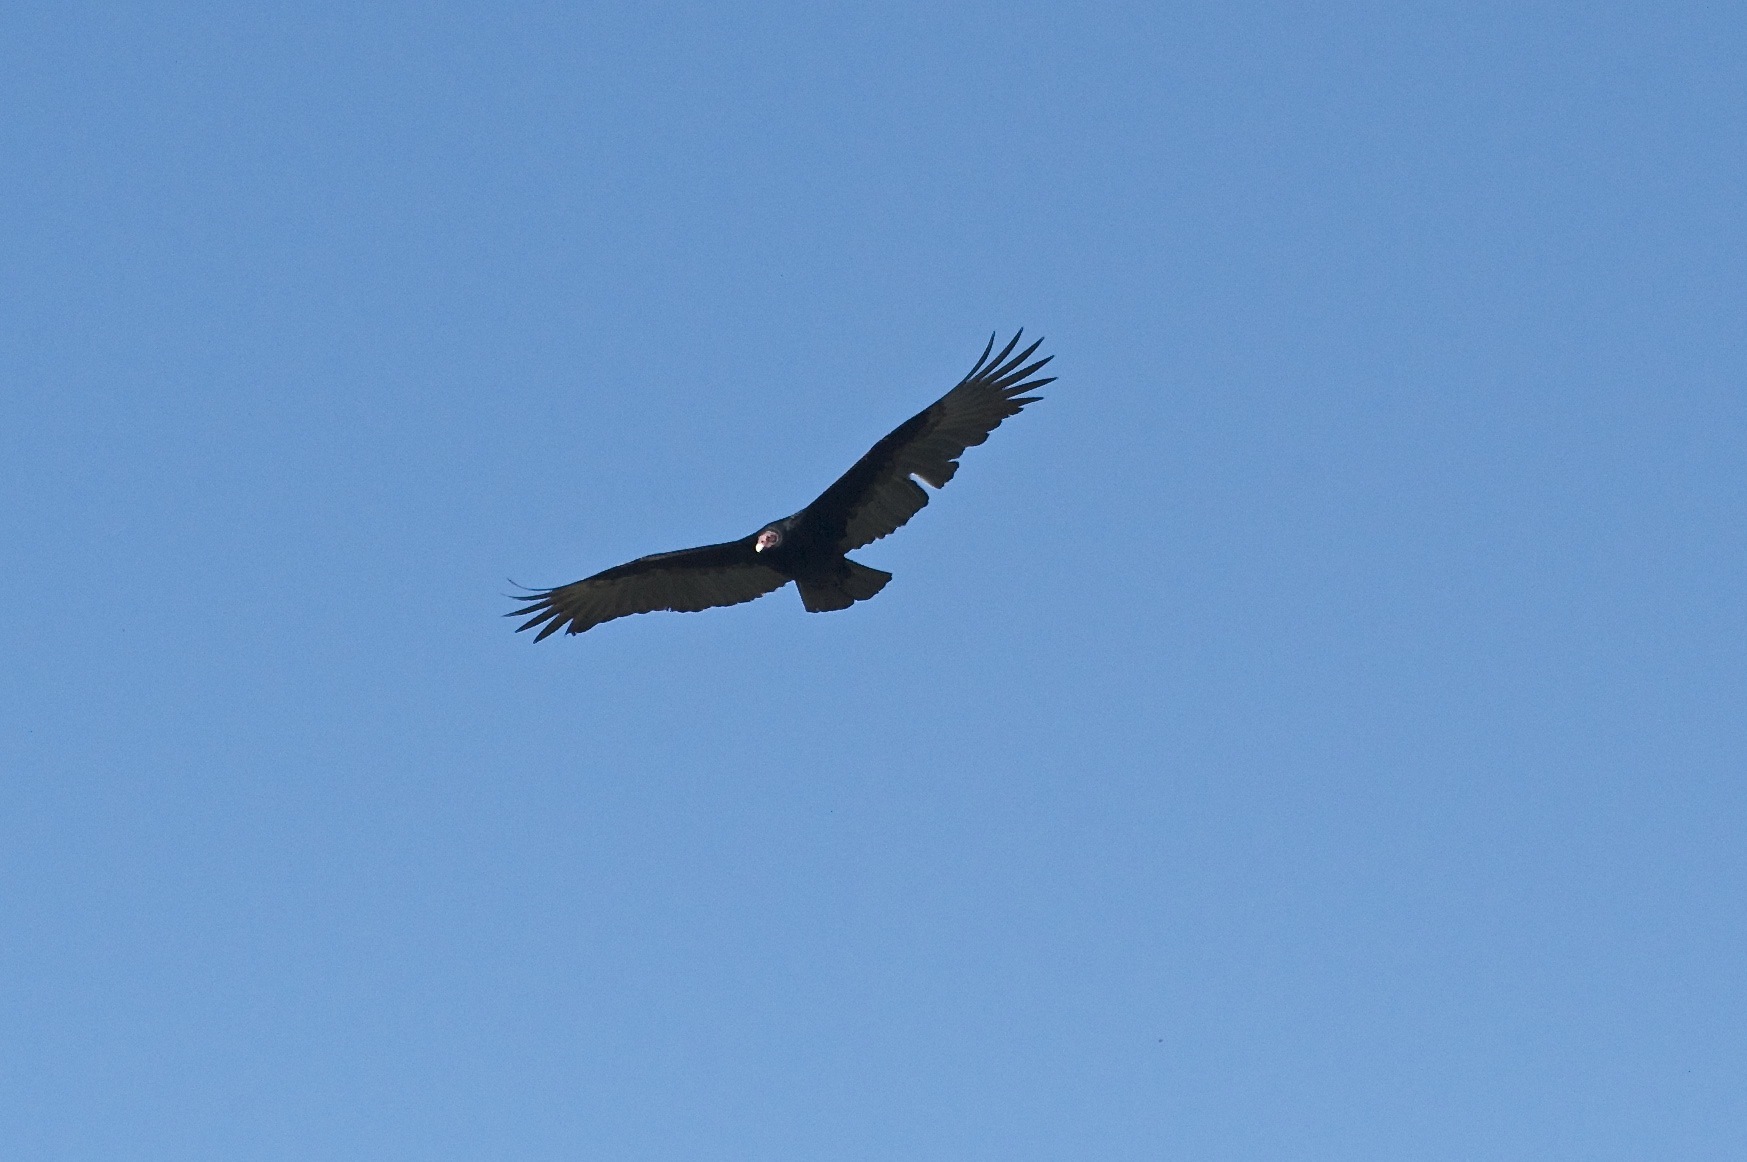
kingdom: Animalia
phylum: Chordata
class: Aves
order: Accipitriformes
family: Cathartidae
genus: Cathartes
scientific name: Cathartes aura
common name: Turkey vulture
